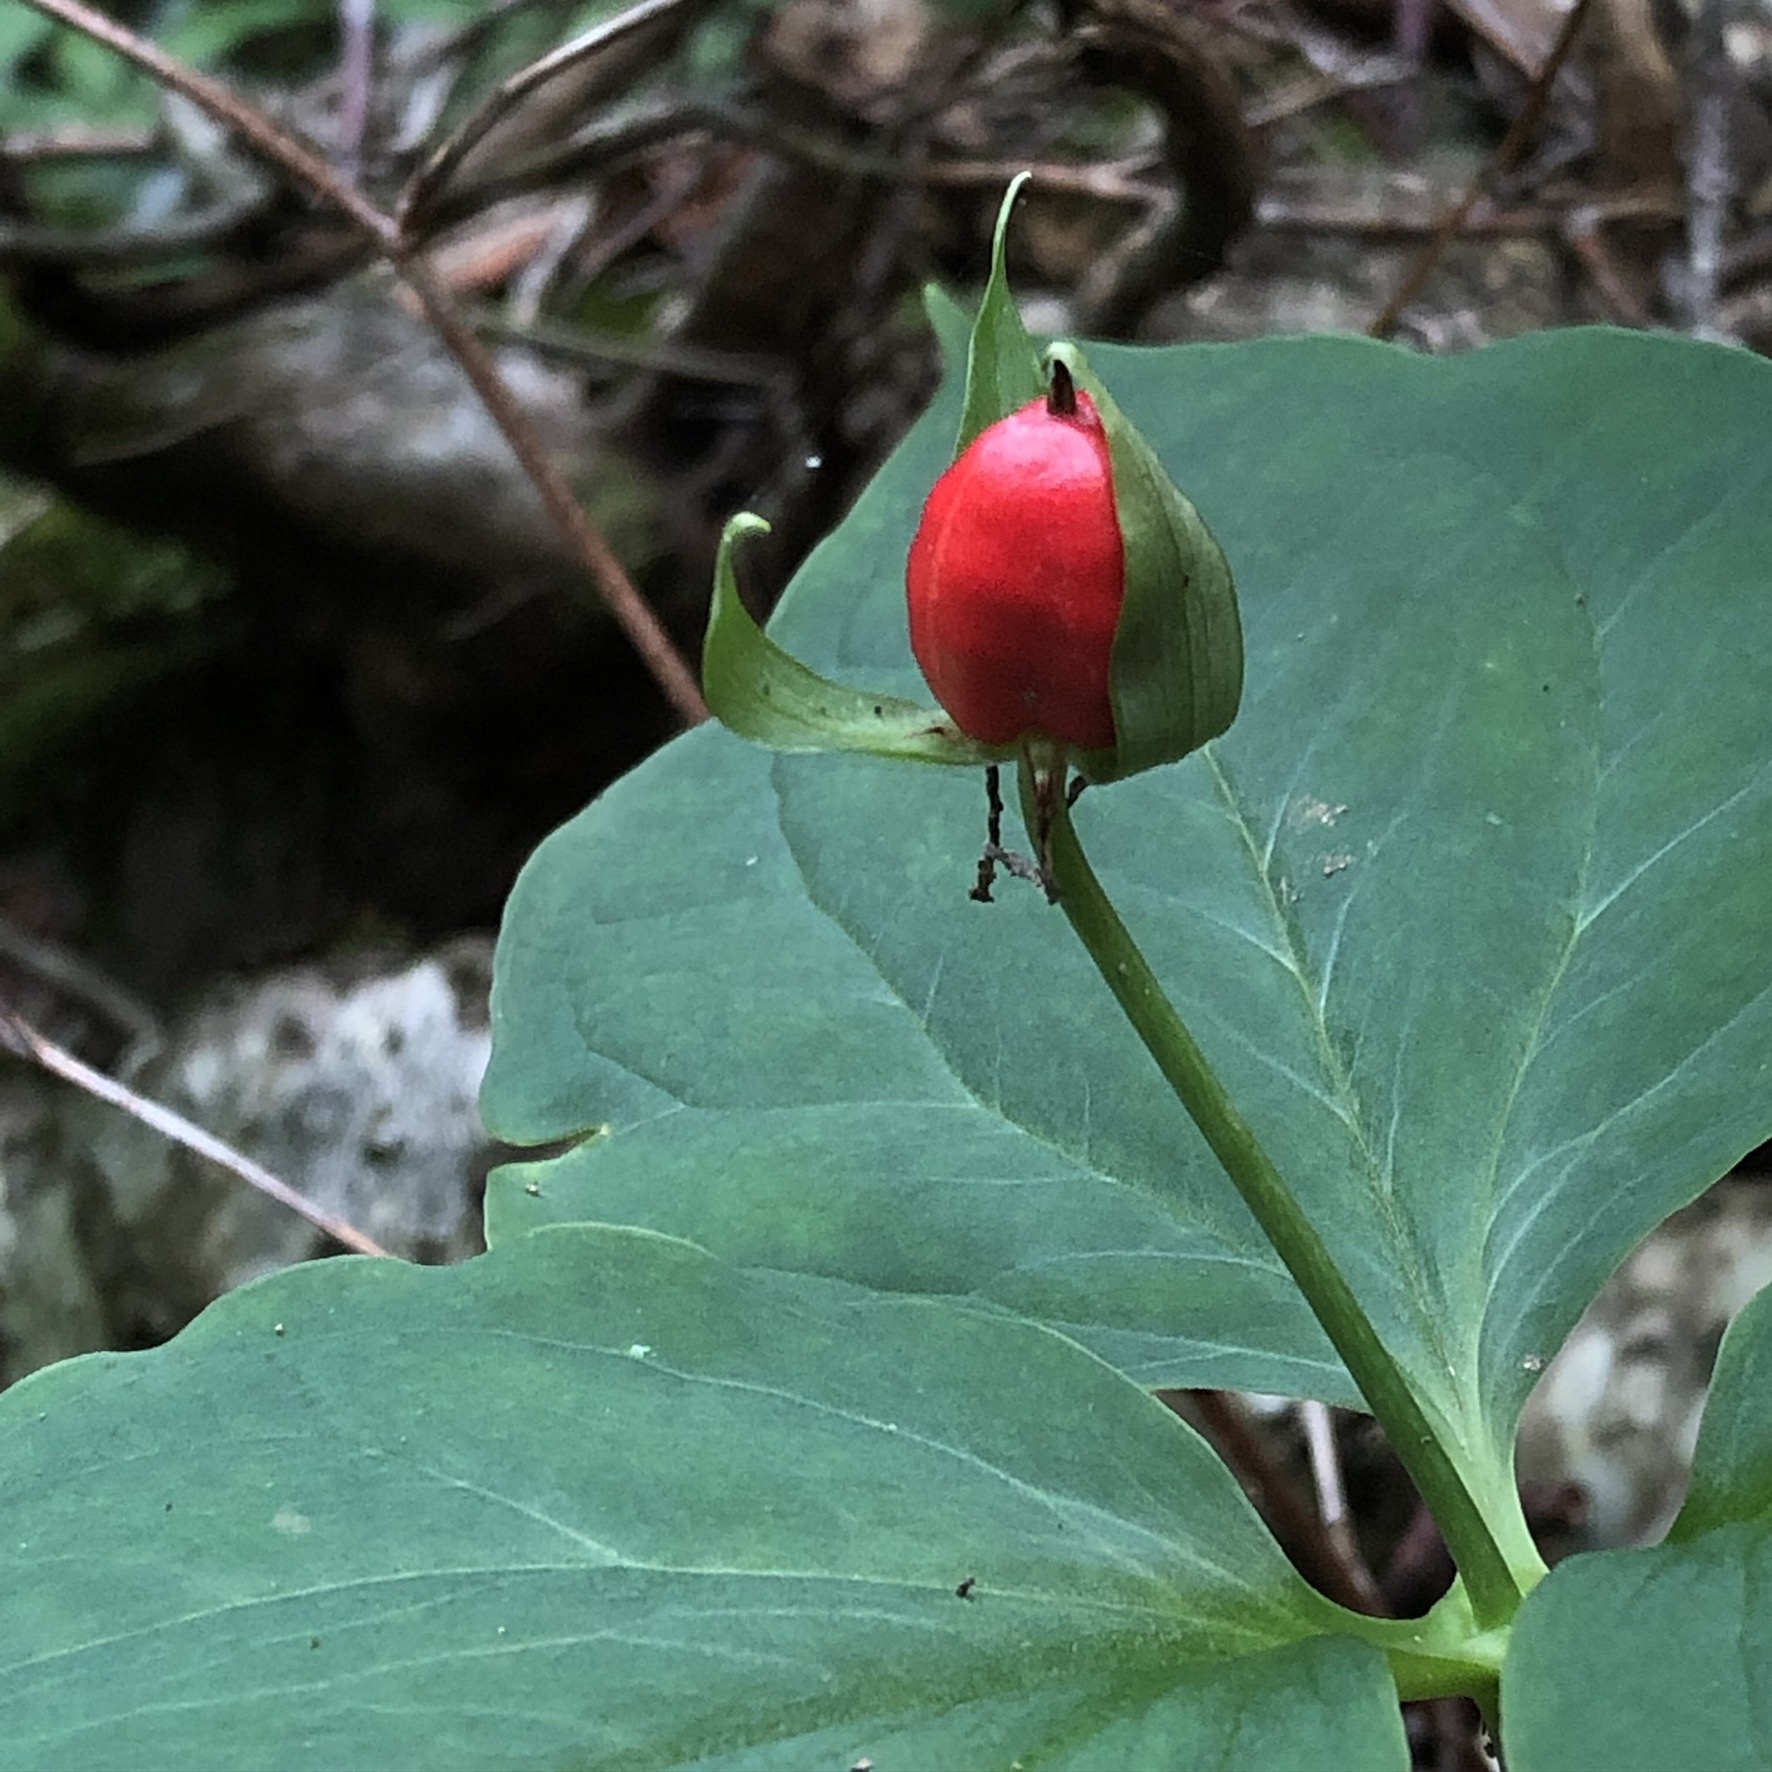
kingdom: Plantae
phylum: Tracheophyta
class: Liliopsida
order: Liliales
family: Melanthiaceae
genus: Trillium
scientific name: Trillium undulatum
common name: Paint trillium
